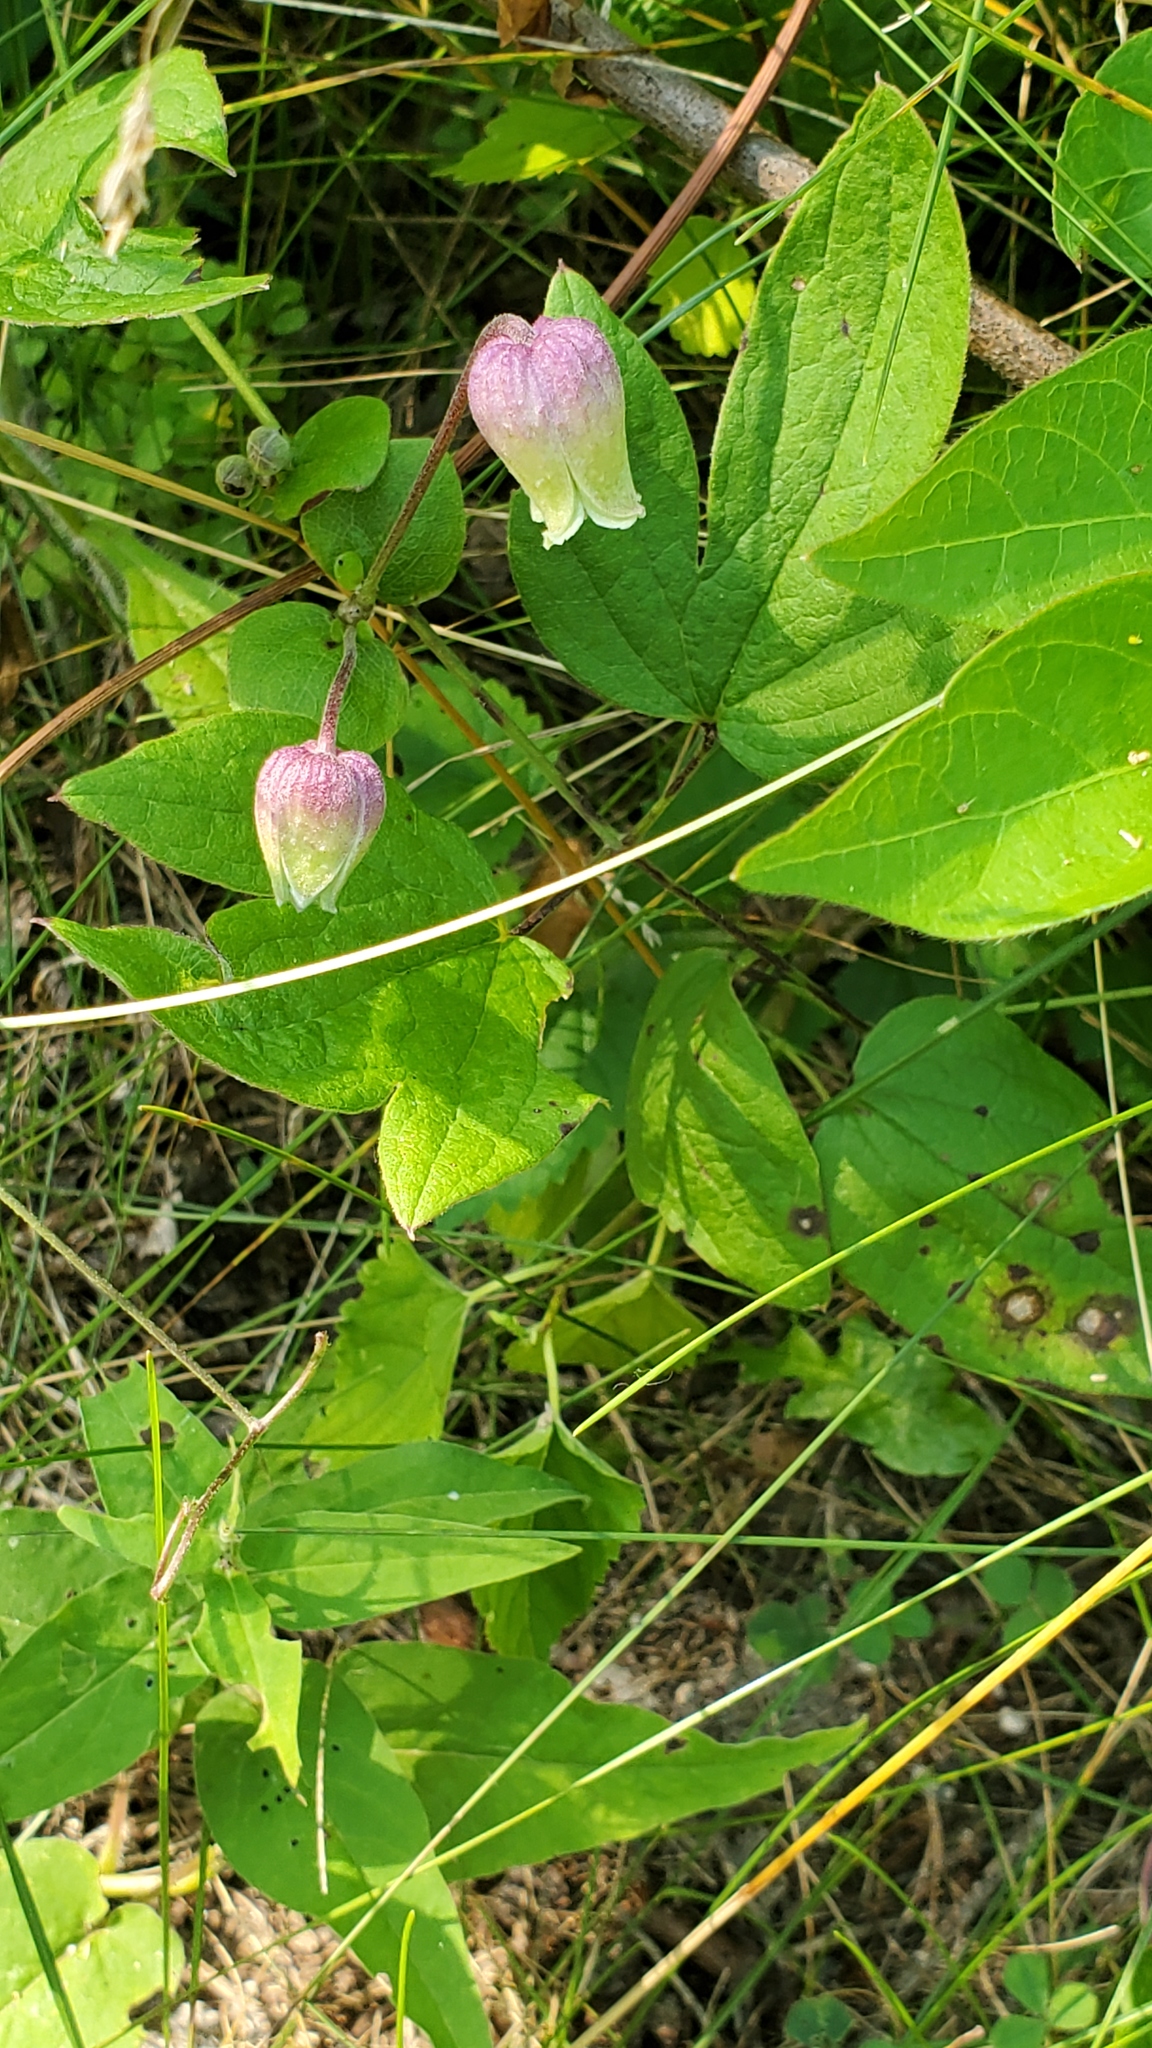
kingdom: Plantae
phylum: Tracheophyta
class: Magnoliopsida
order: Ranunculales
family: Ranunculaceae
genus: Clematis
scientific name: Clematis pitcheri
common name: Bellflower clematis
